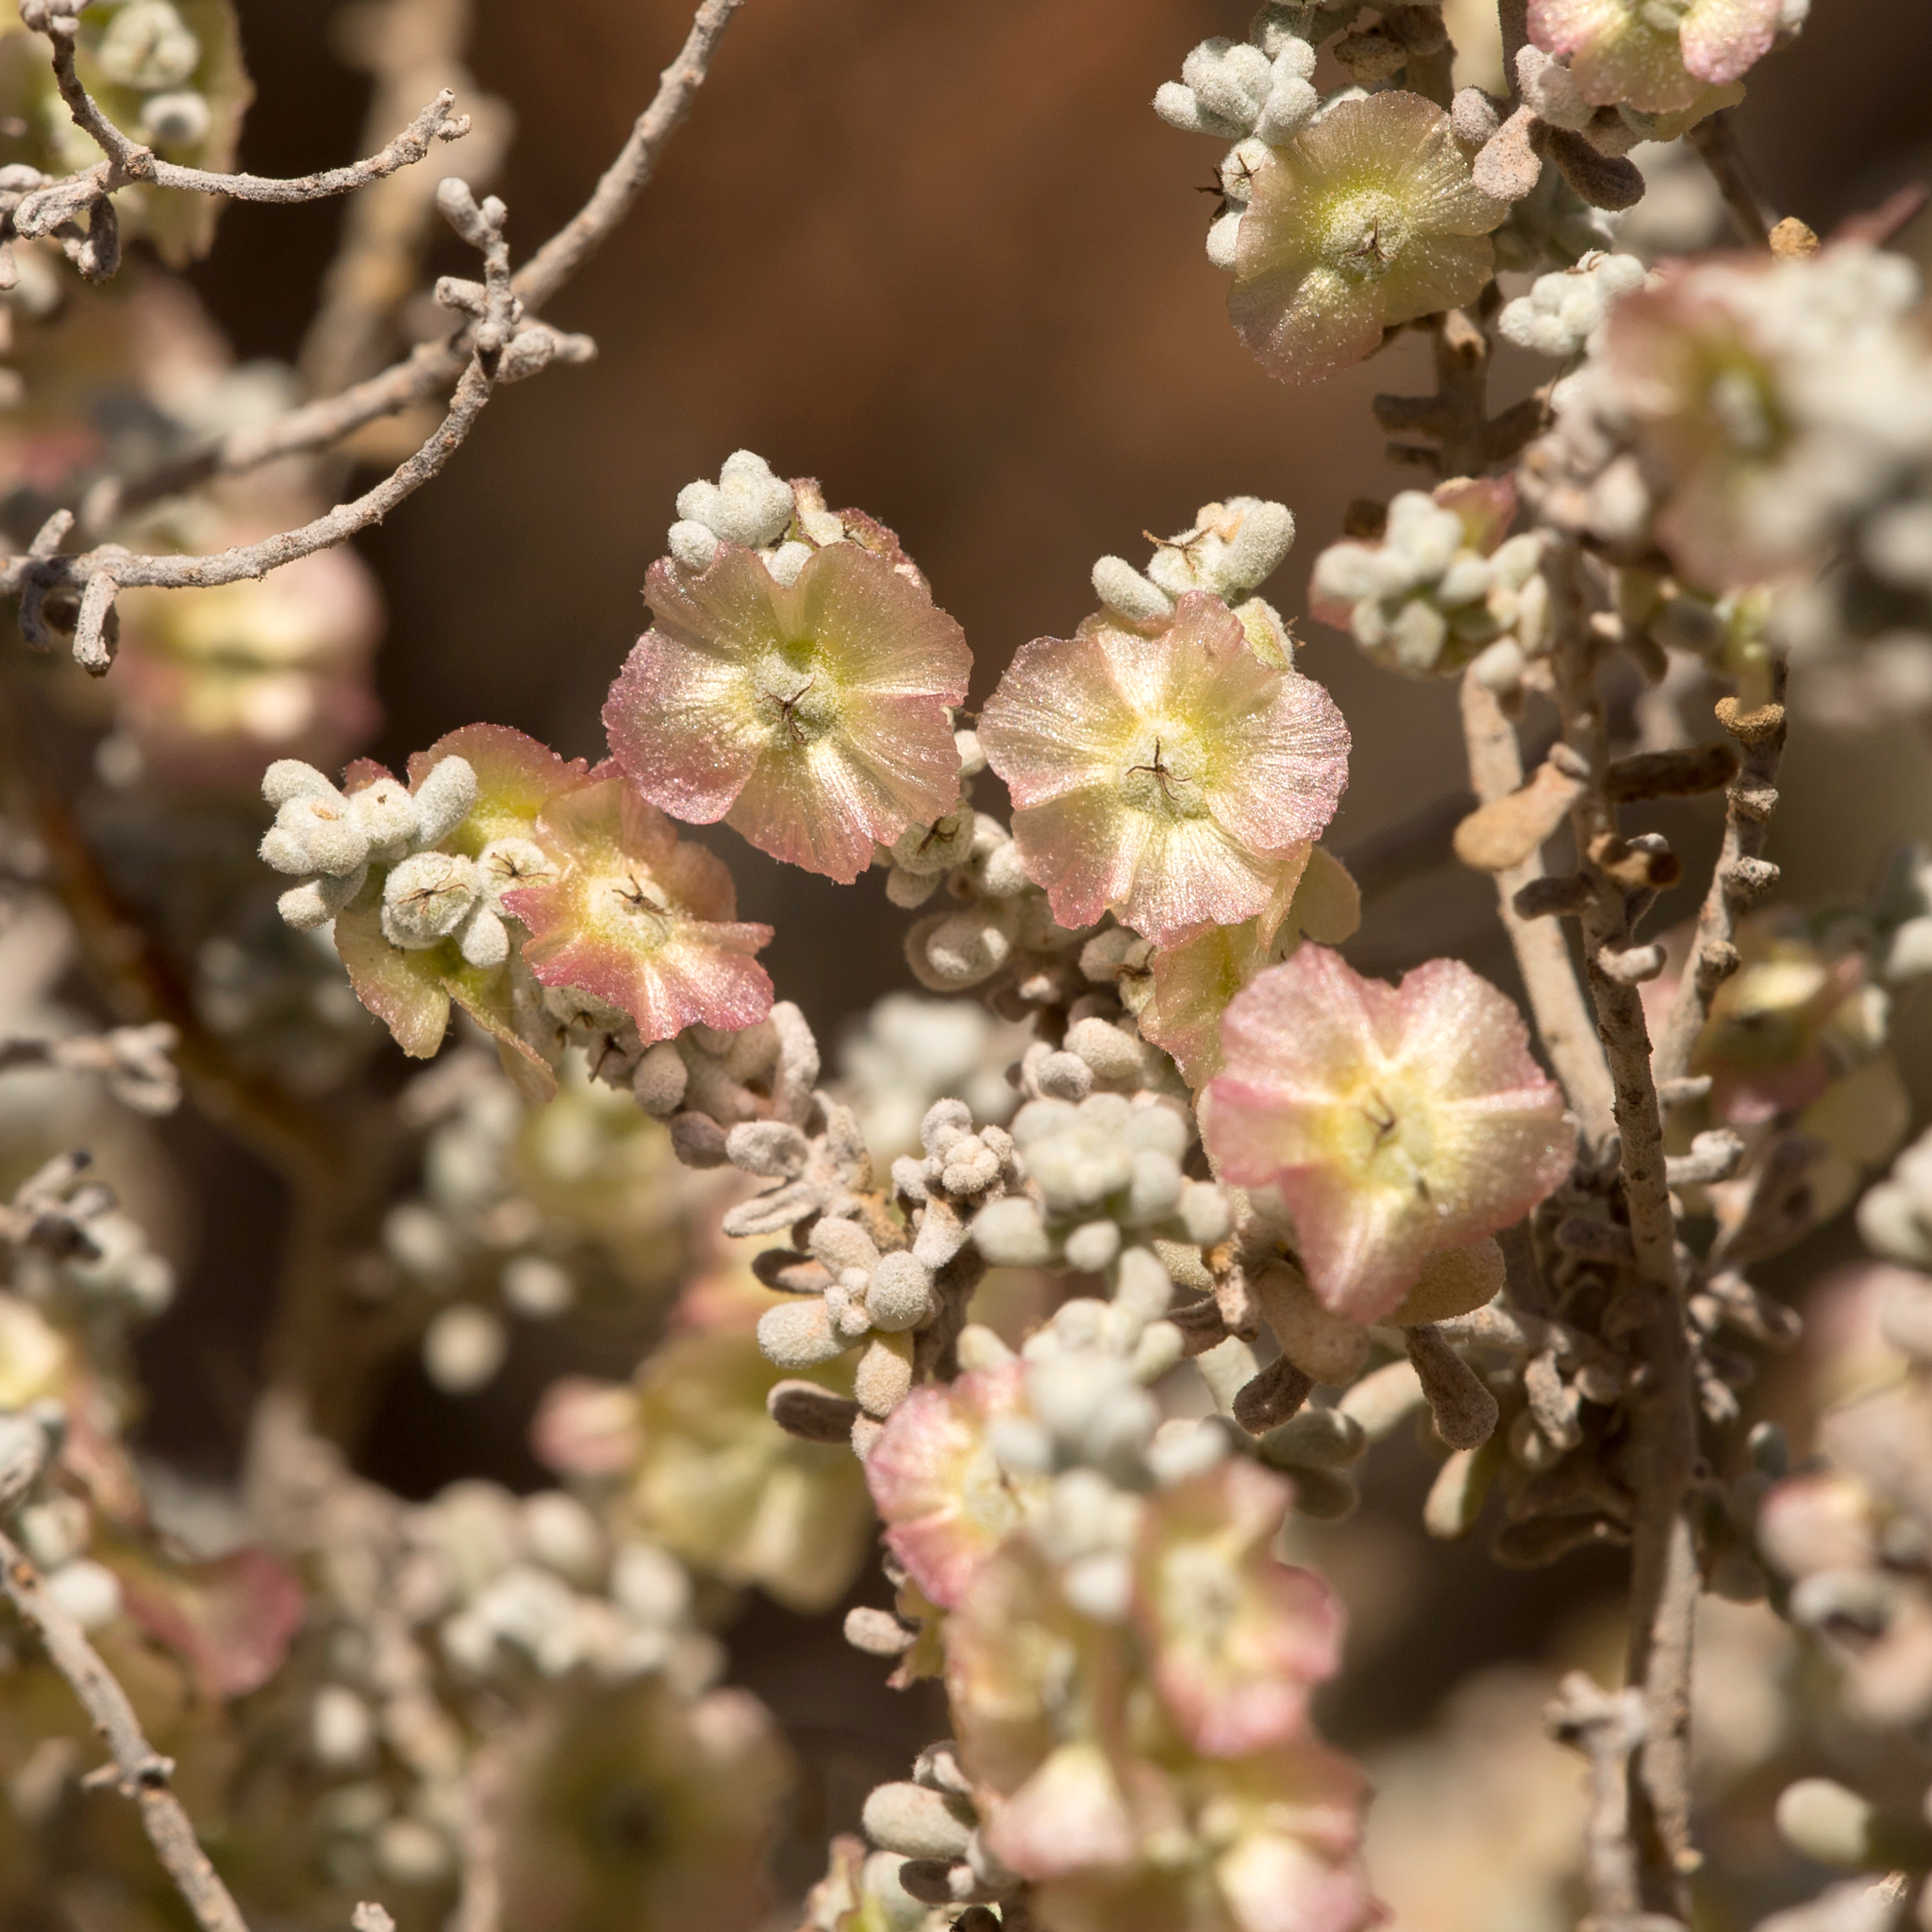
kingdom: Plantae
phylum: Tracheophyta
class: Magnoliopsida
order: Caryophyllales
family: Amaranthaceae
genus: Maireana
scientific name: Maireana sedifolia
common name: Hoary bluebush
